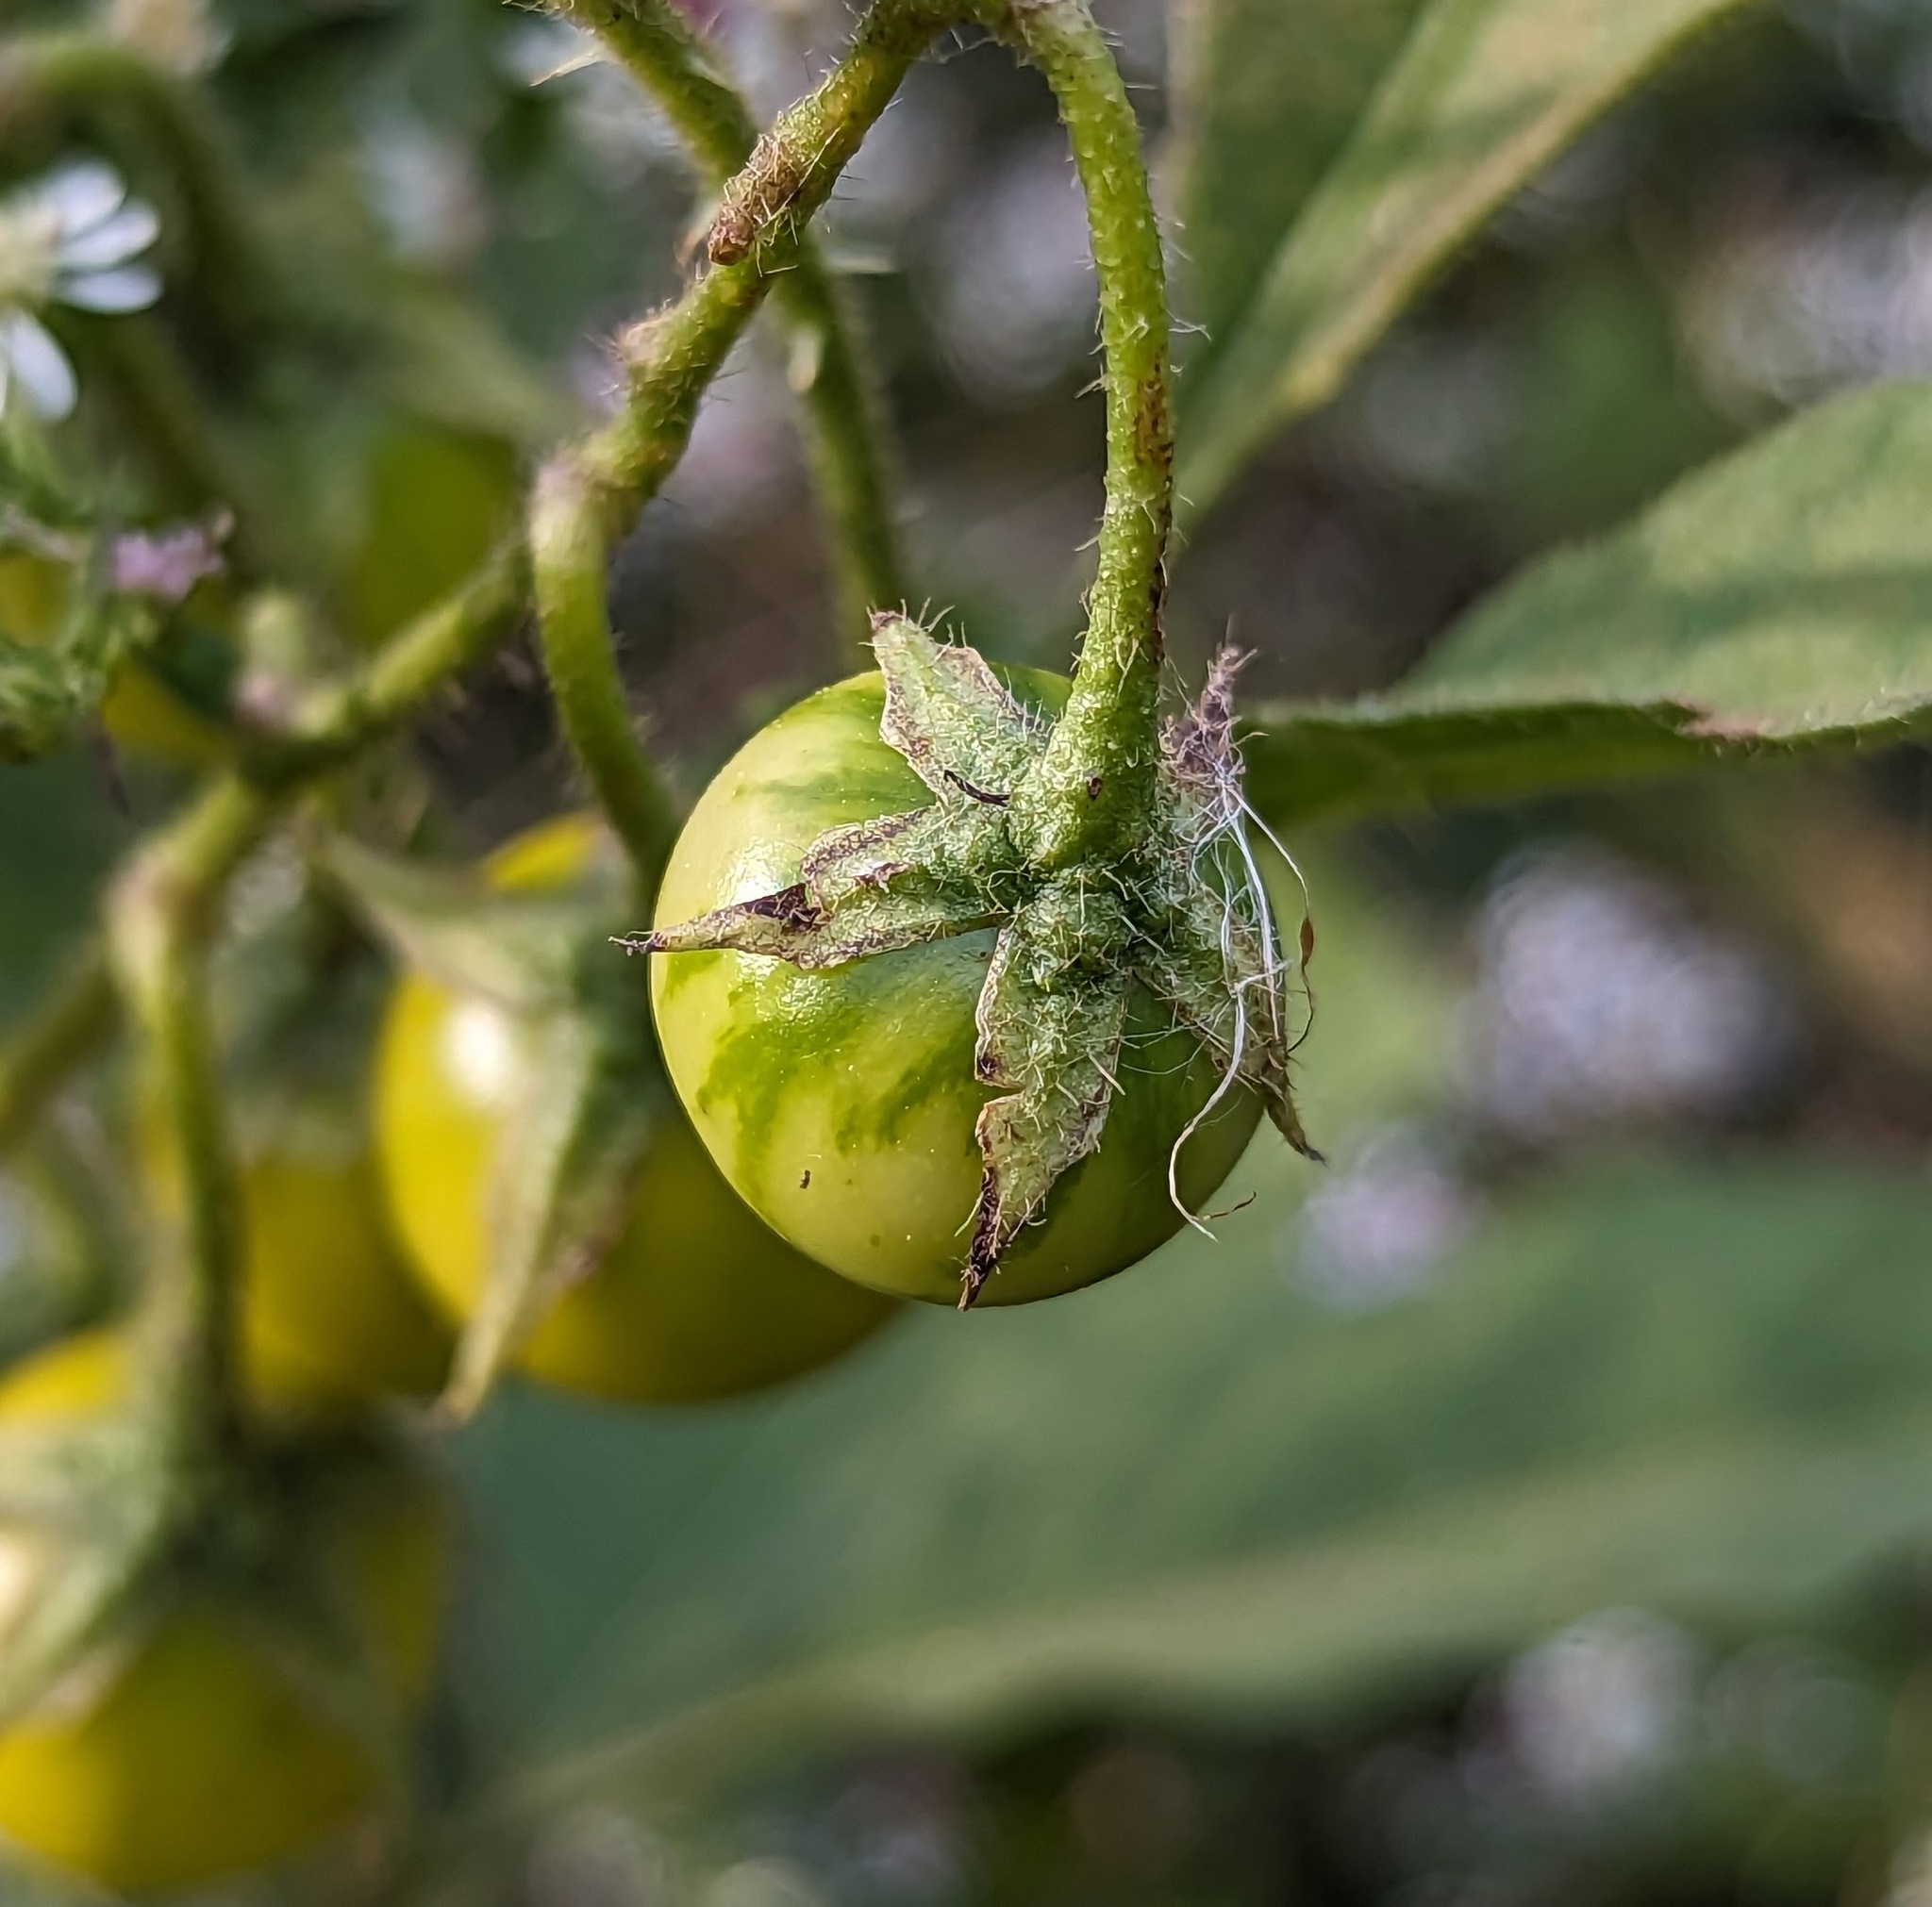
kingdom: Plantae
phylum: Tracheophyta
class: Magnoliopsida
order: Solanales
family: Solanaceae
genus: Solanum
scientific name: Solanum carolinense
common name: Horse-nettle
